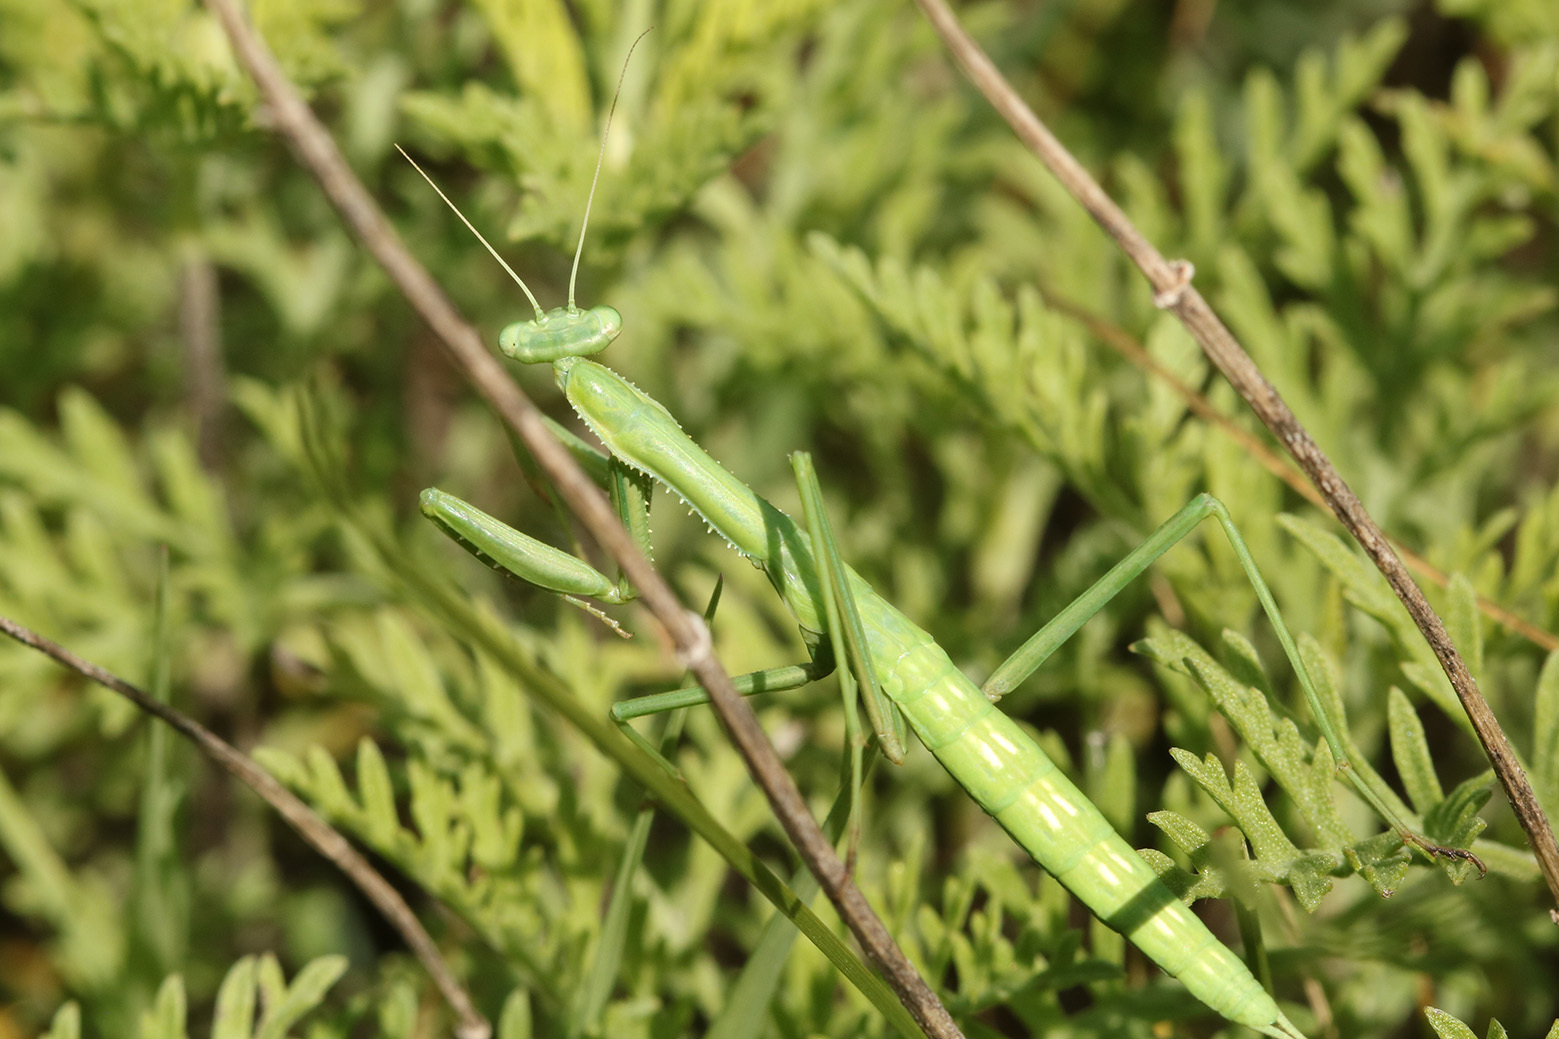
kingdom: Animalia
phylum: Arthropoda
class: Insecta
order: Mantodea
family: Coptopterygidae
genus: Coptopteryx
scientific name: Coptopteryx gayi
